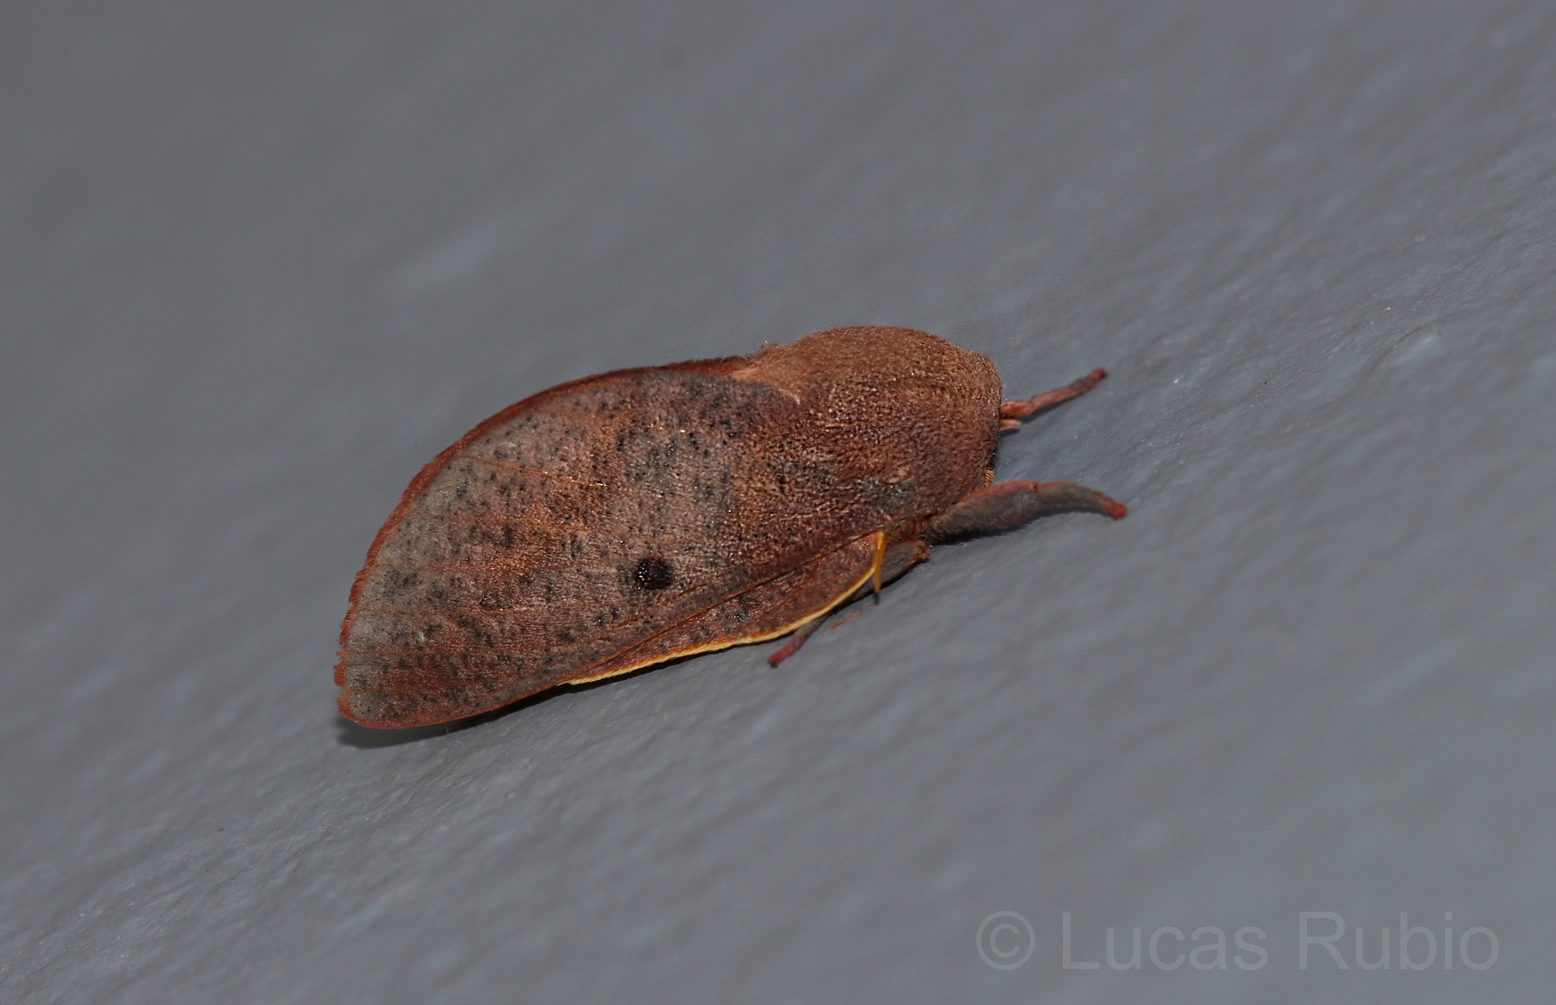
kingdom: Animalia
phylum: Arthropoda
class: Insecta
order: Lepidoptera
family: Saturniidae
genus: Psilopygida
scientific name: Psilopygida crispula
